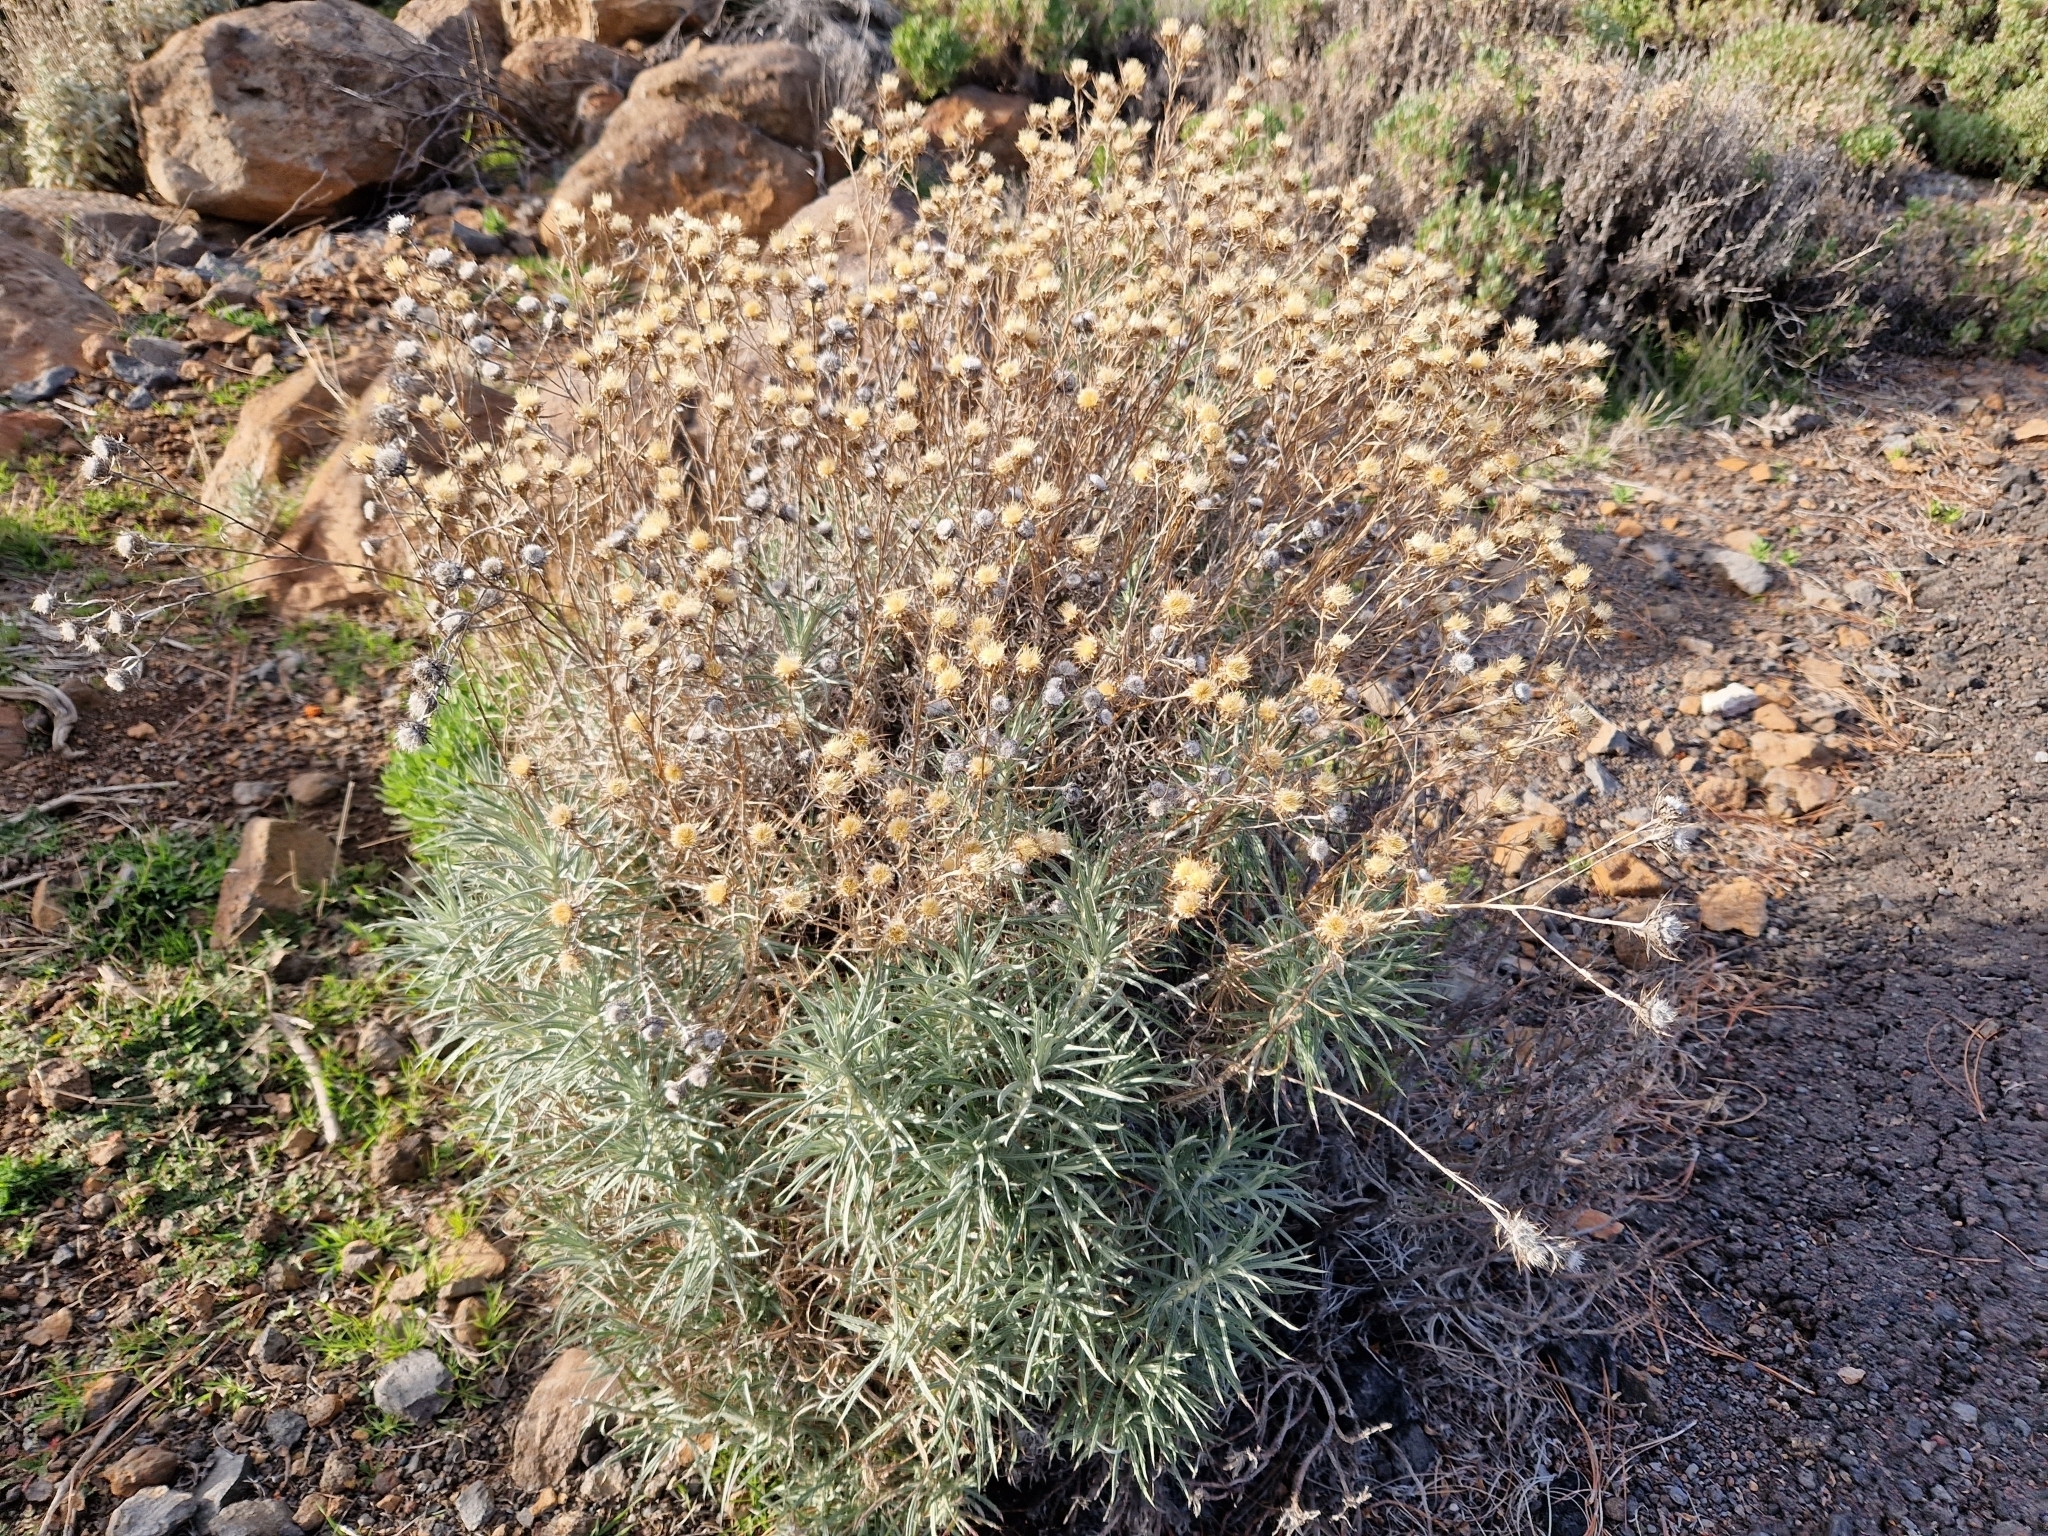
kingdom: Plantae
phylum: Tracheophyta
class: Magnoliopsida
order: Asterales
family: Asteraceae
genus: Carlina
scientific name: Carlina xeranthemoides
